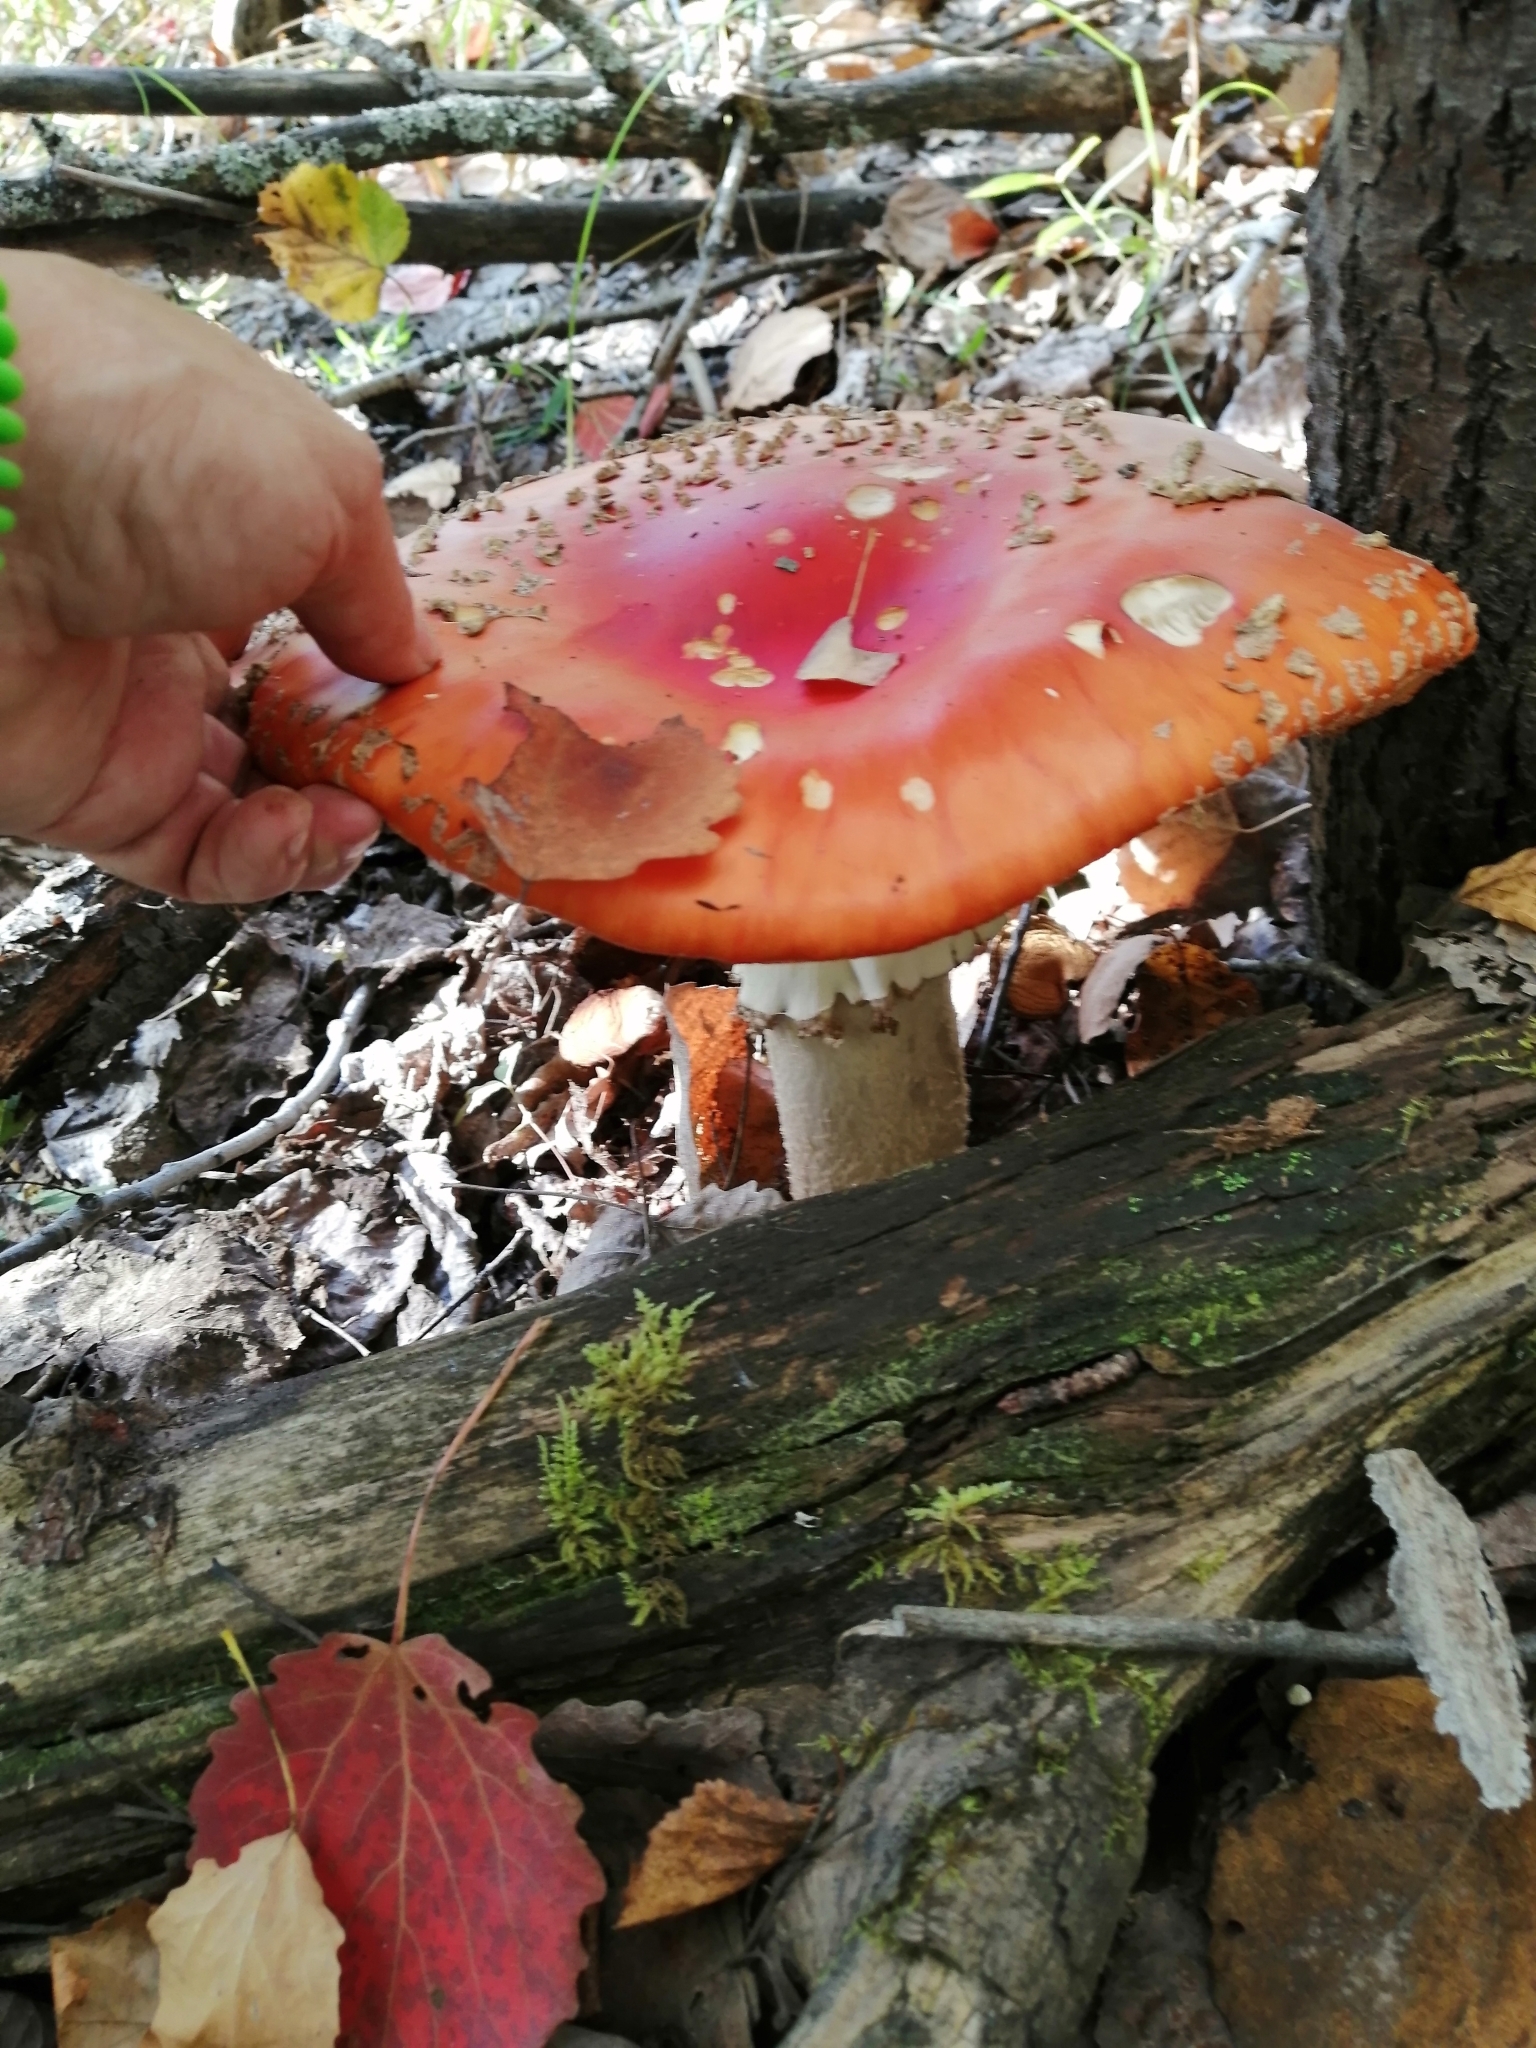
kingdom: Fungi
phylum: Basidiomycota
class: Agaricomycetes
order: Agaricales
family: Amanitaceae
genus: Amanita
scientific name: Amanita muscaria
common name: Fly agaric
